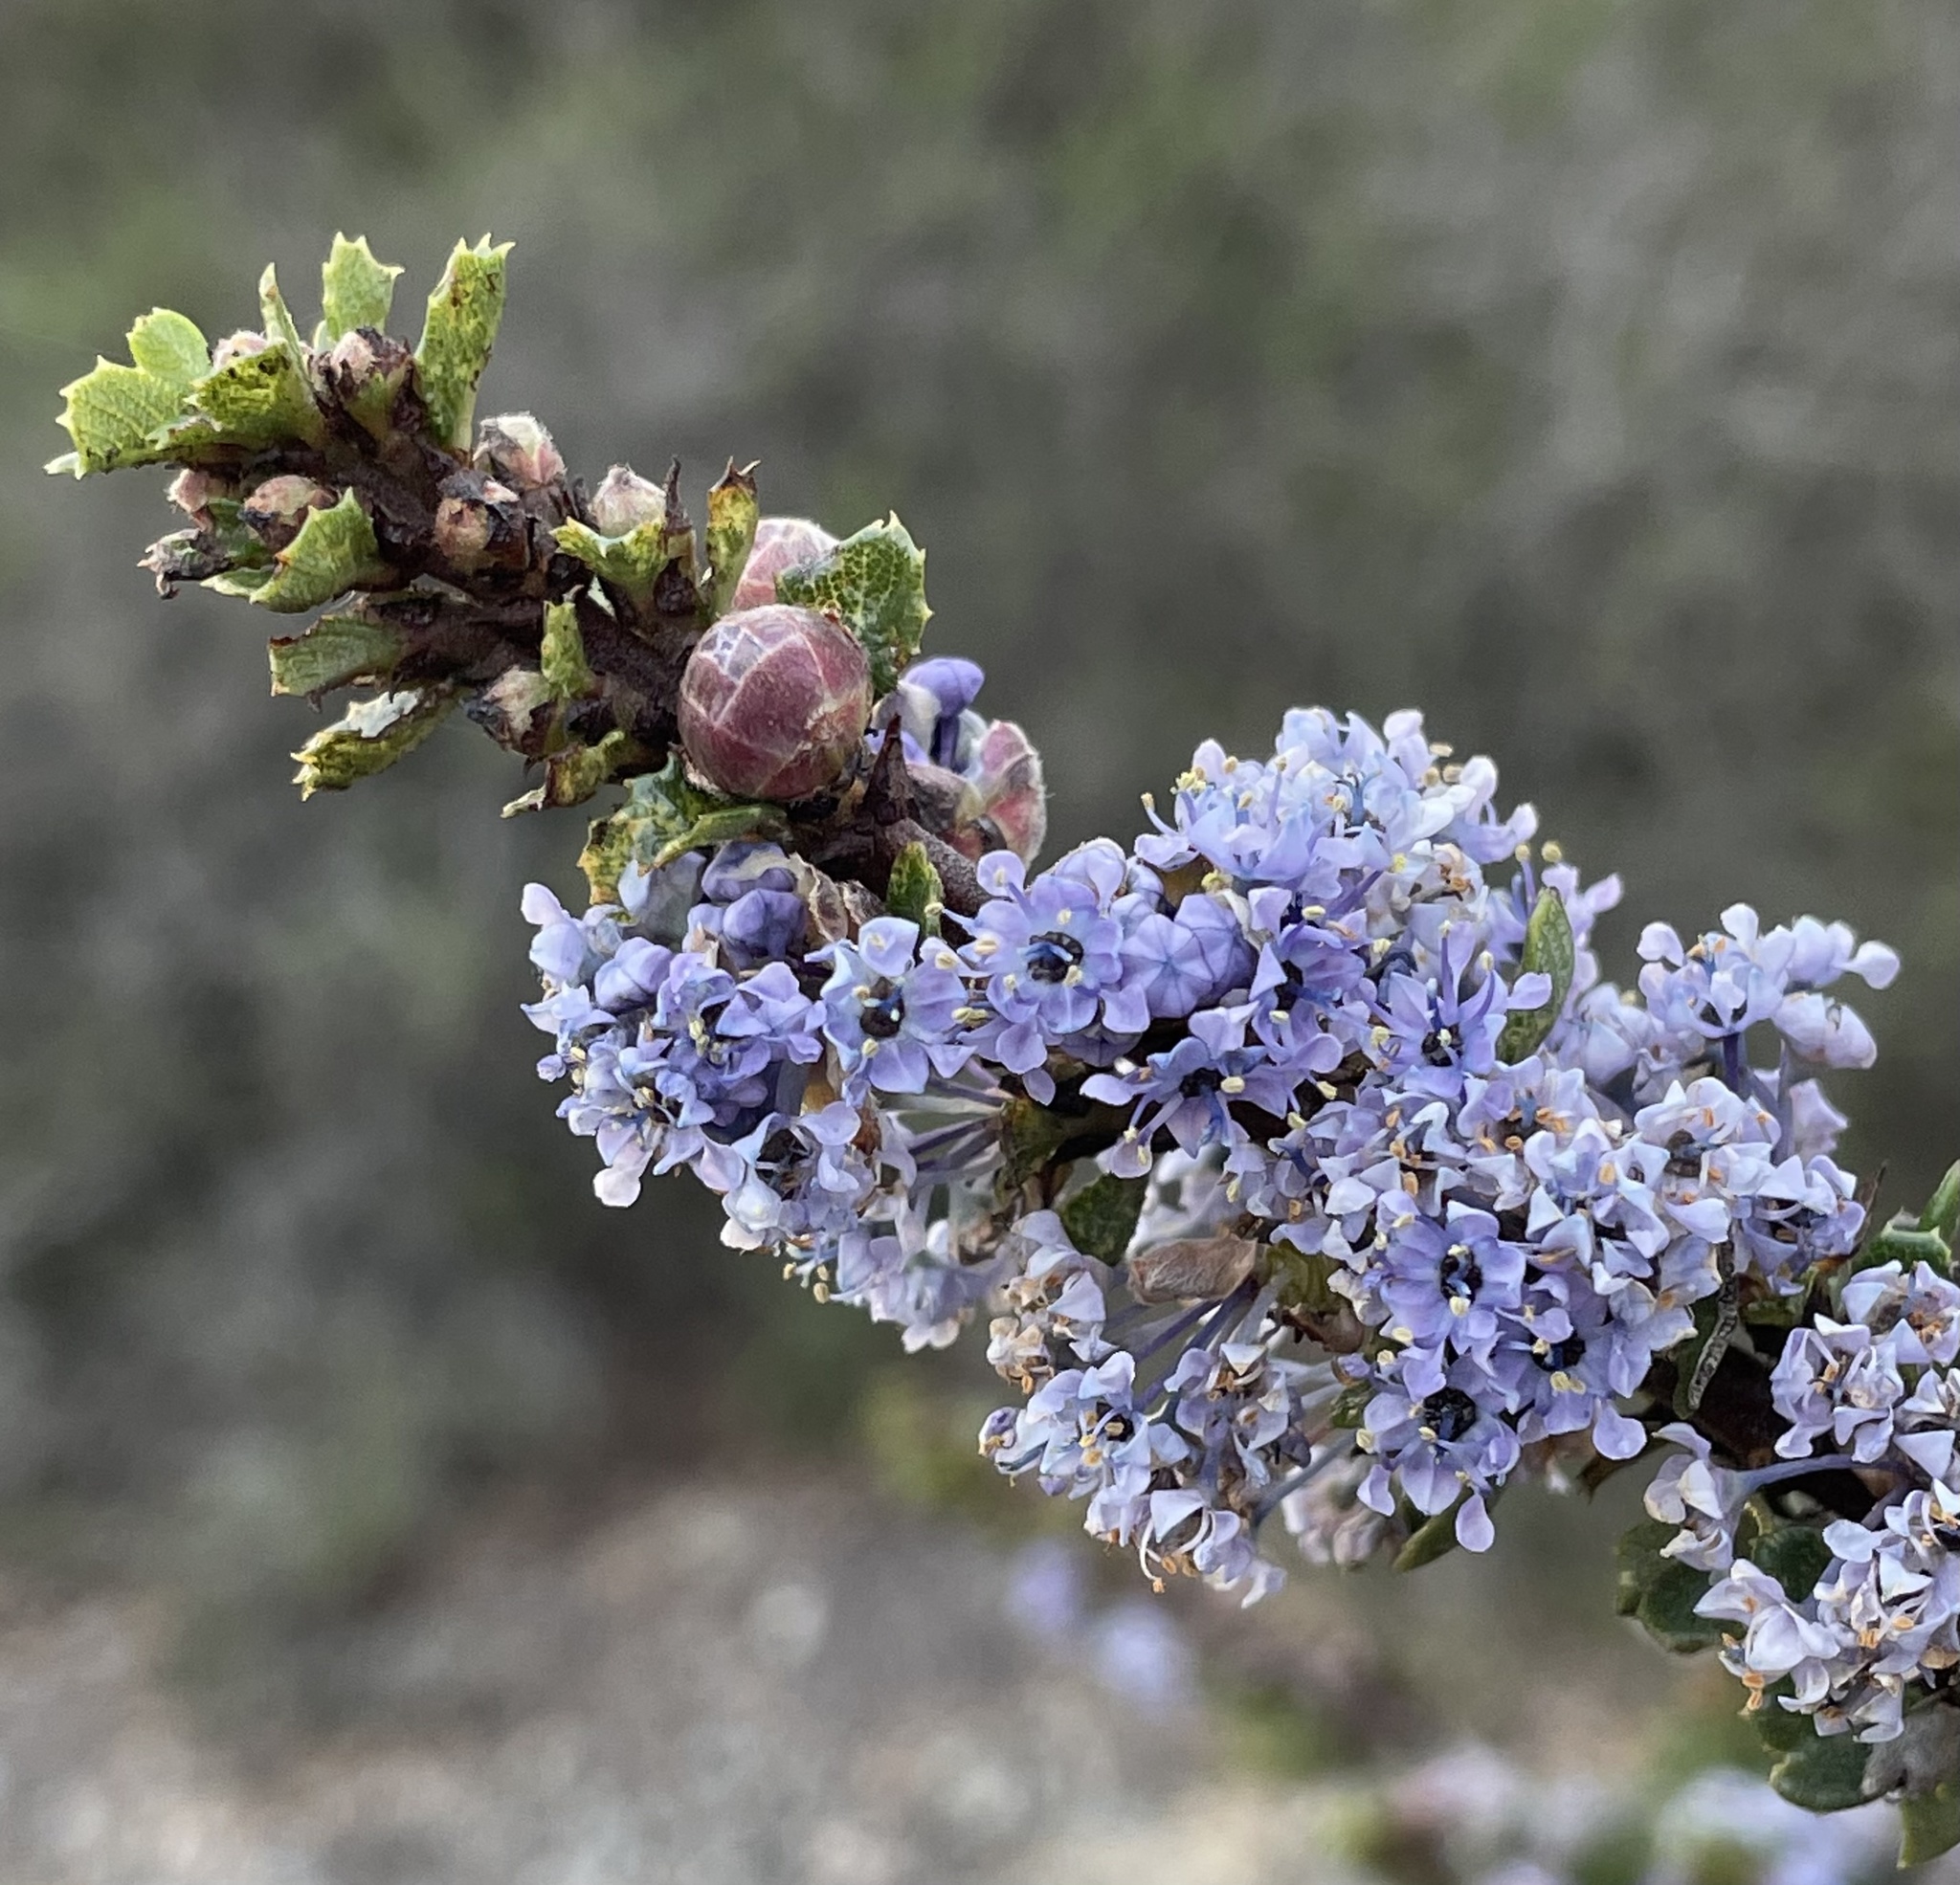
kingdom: Plantae
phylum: Tracheophyta
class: Magnoliopsida
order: Rosales
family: Rhamnaceae
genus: Ceanothus
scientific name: Ceanothus cuneatus
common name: Cuneate ceanothus
